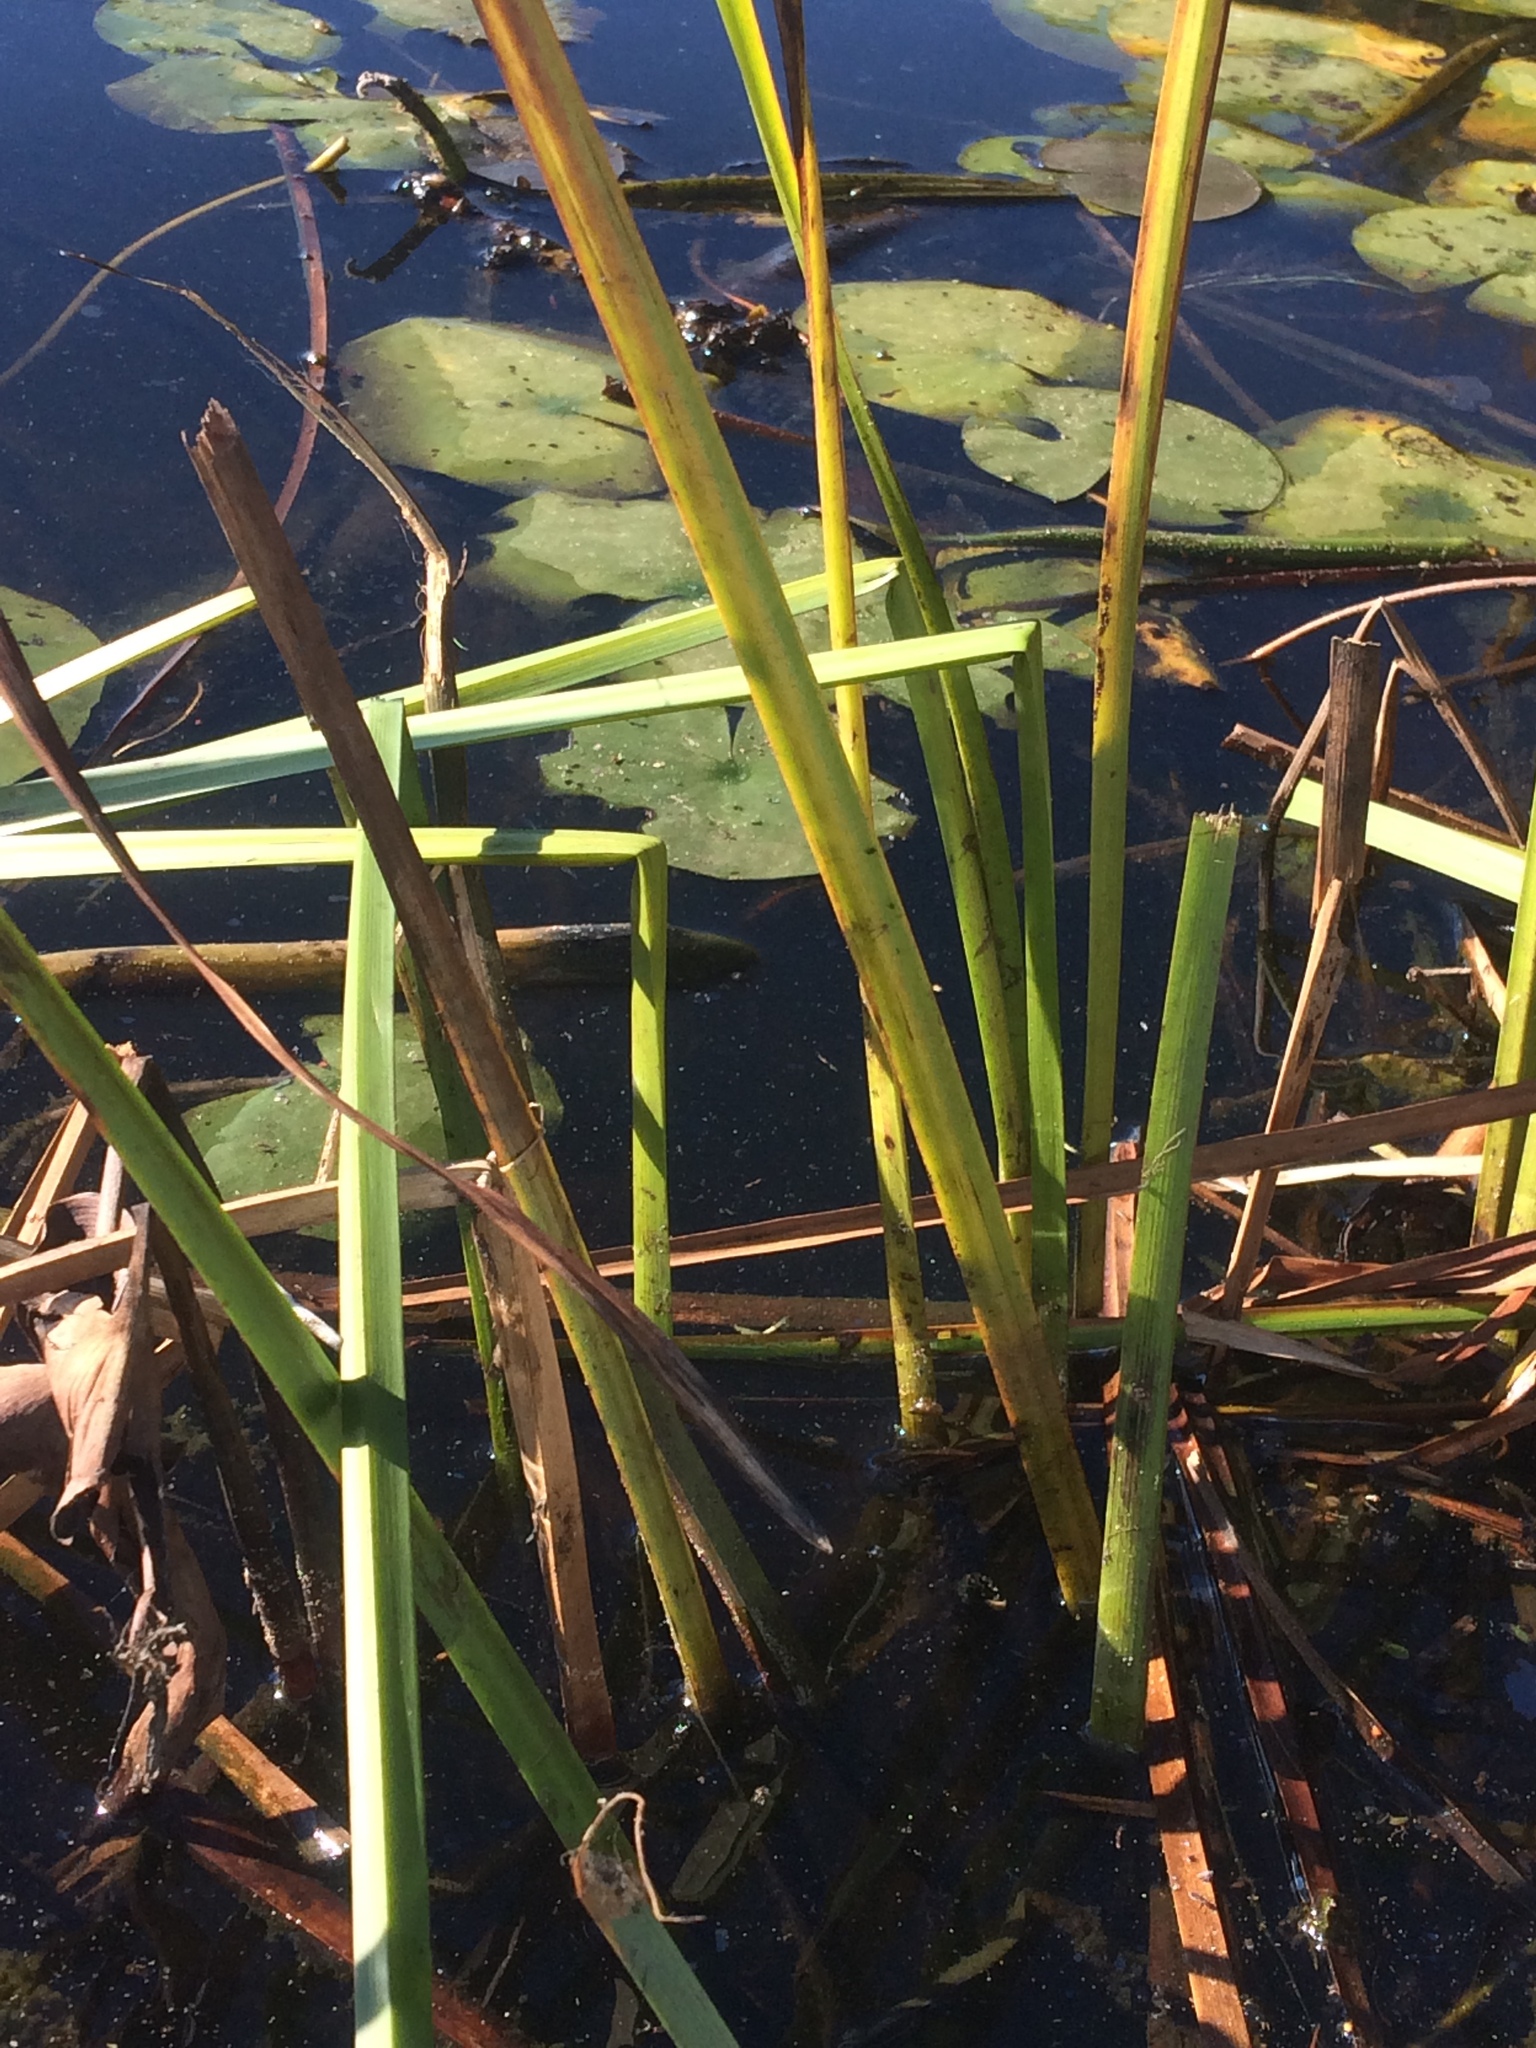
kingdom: Plantae
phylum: Tracheophyta
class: Liliopsida
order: Poales
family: Cyperaceae
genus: Schoenoplectus
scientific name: Schoenoplectus pungens
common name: Sharp club-rush
